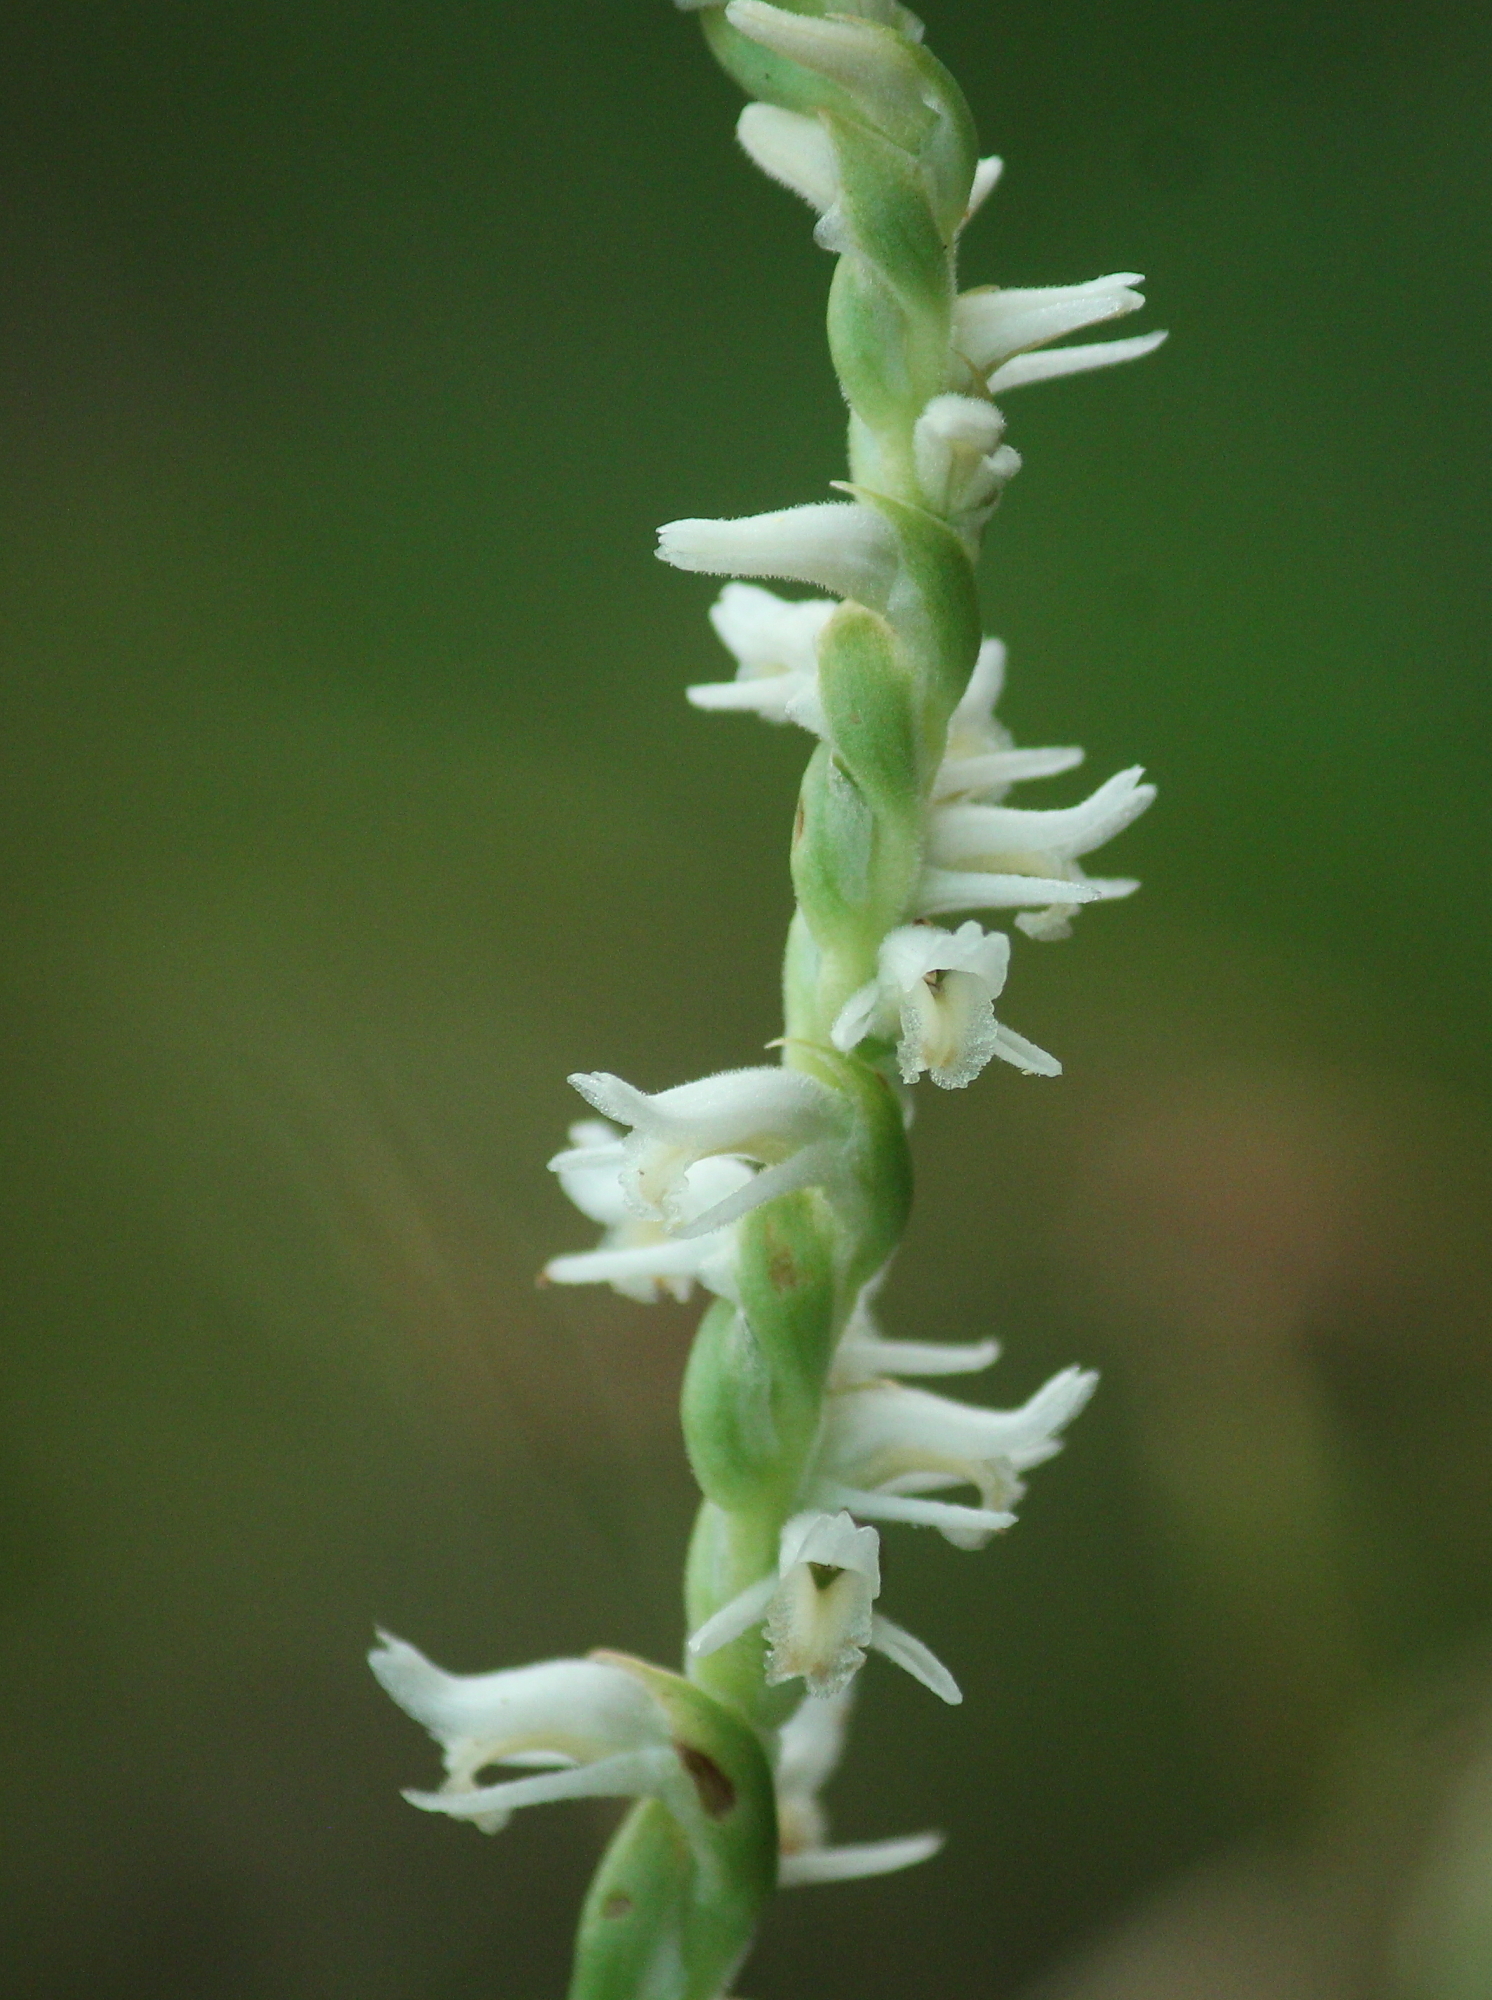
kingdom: Plantae
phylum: Tracheophyta
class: Liliopsida
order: Asparagales
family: Orchidaceae
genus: Spiranthes
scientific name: Spiranthes vernalis
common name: Spring ladies'-tresses
